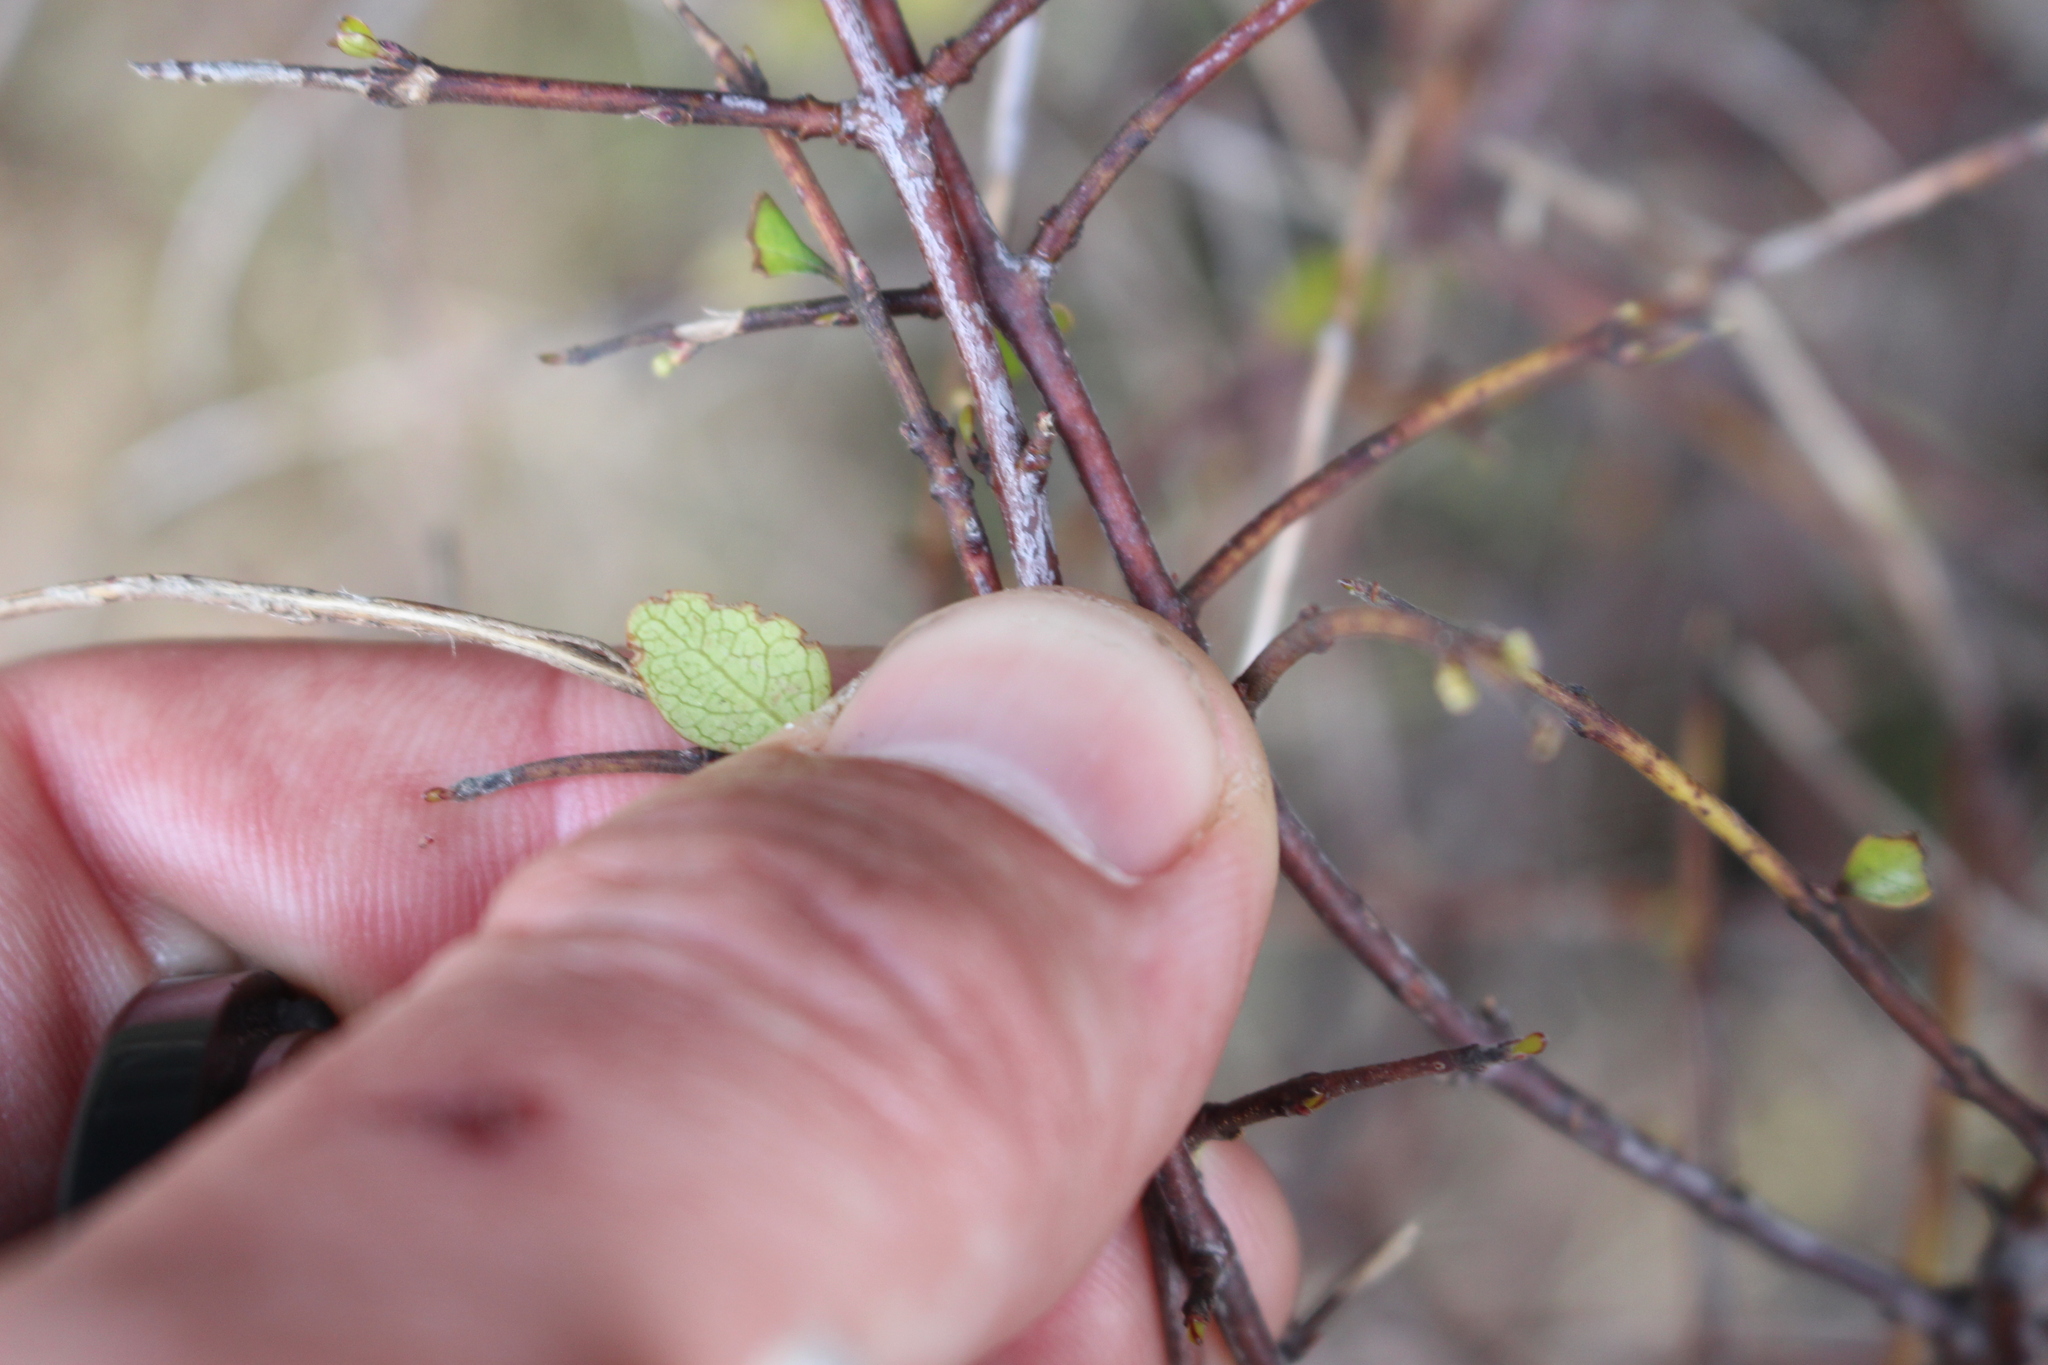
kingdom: Plantae
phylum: Tracheophyta
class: Magnoliopsida
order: Oxalidales
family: Elaeocarpaceae
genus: Aristotelia
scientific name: Aristotelia fruticosa
